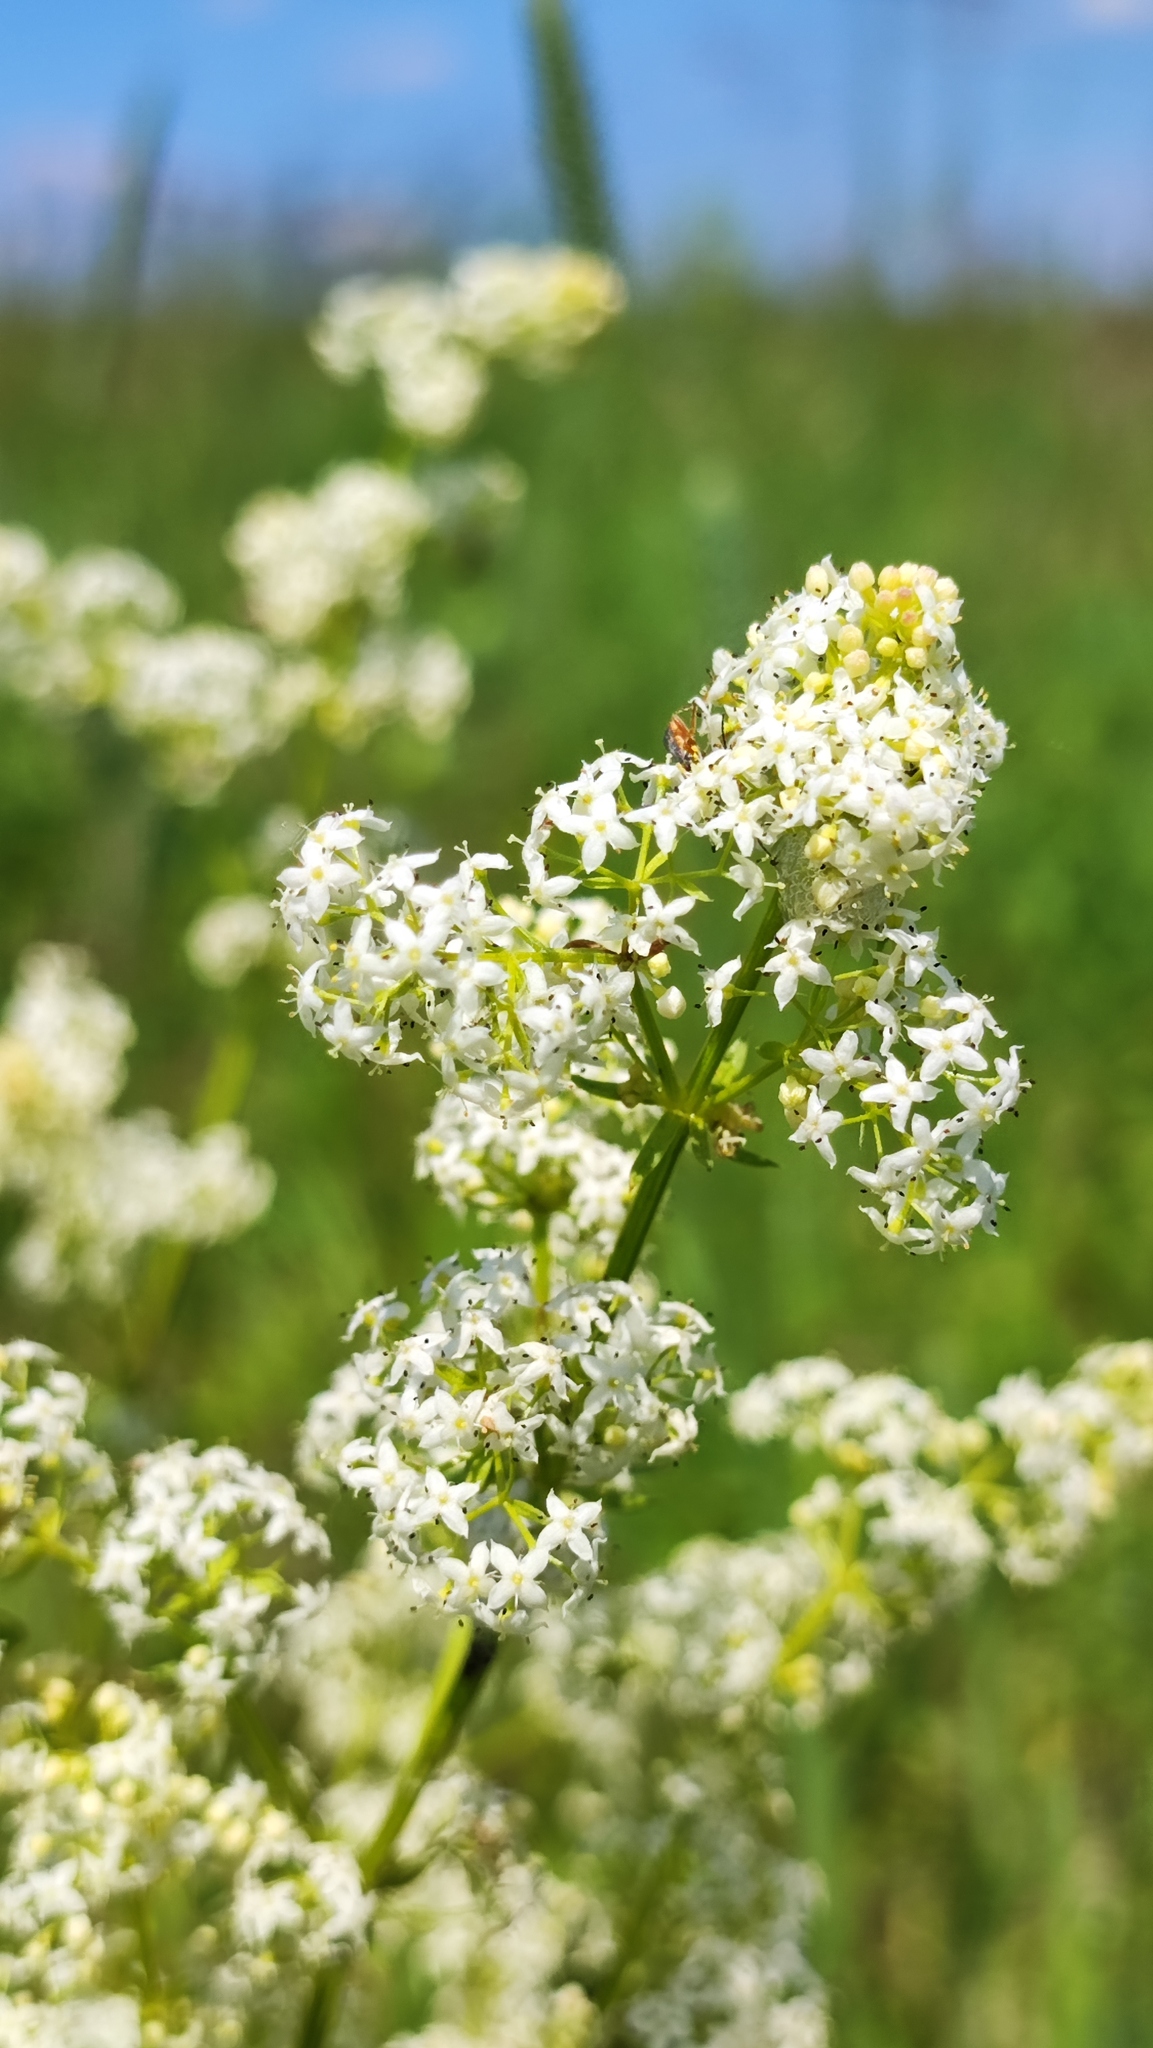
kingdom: Plantae
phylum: Tracheophyta
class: Magnoliopsida
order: Gentianales
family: Rubiaceae
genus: Galium
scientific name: Galium mollugo
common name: Hedge bedstraw
